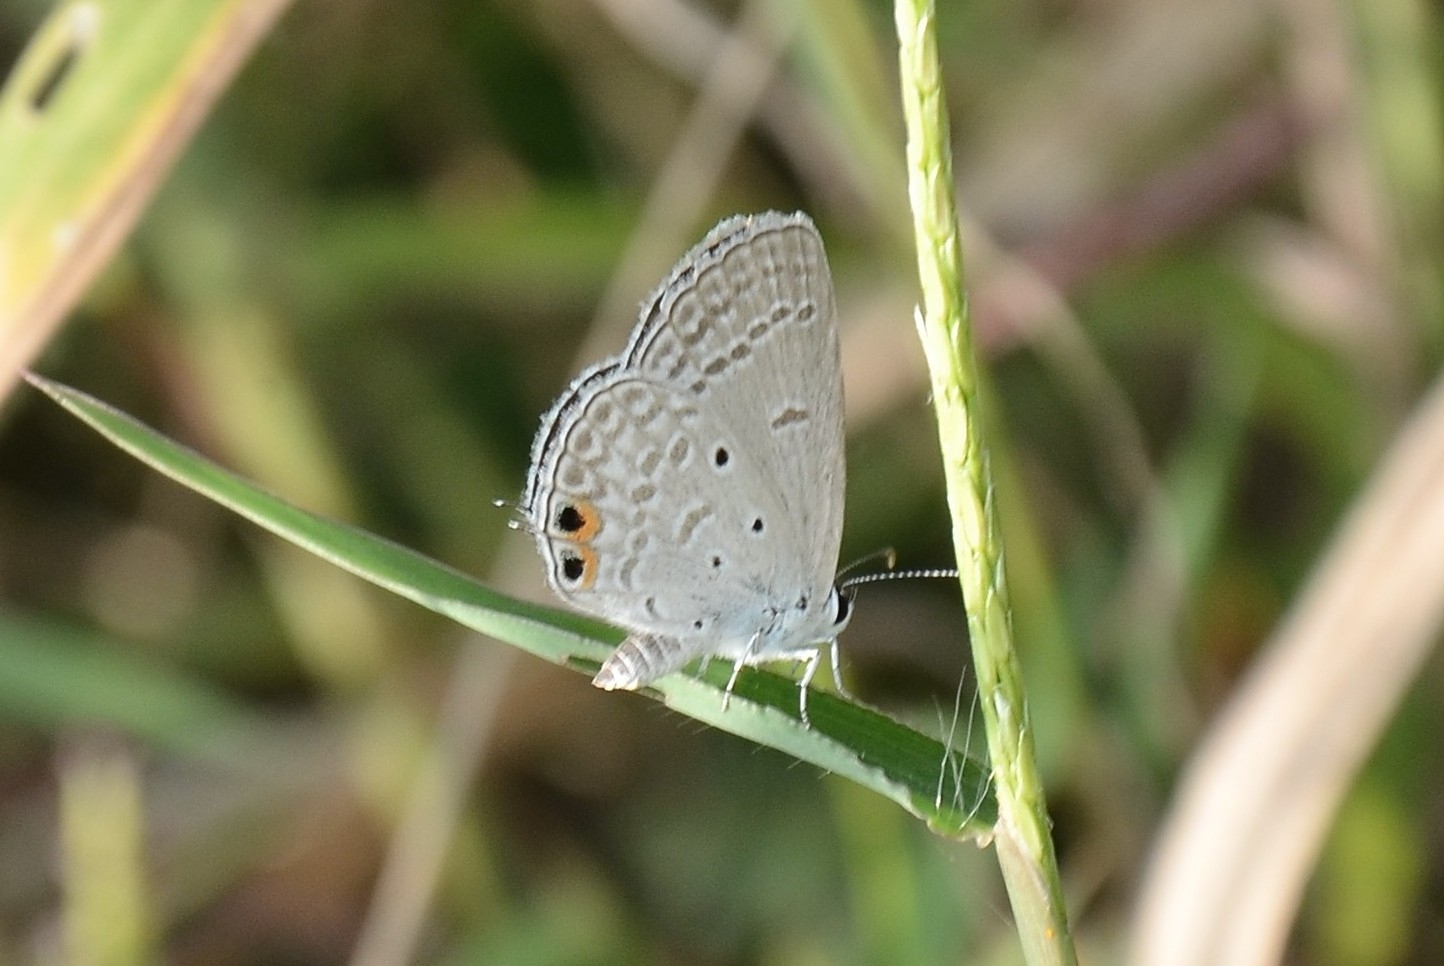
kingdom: Animalia
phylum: Arthropoda
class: Insecta
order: Lepidoptera
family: Lycaenidae
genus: Euchrysops
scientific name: Euchrysops cnejus
